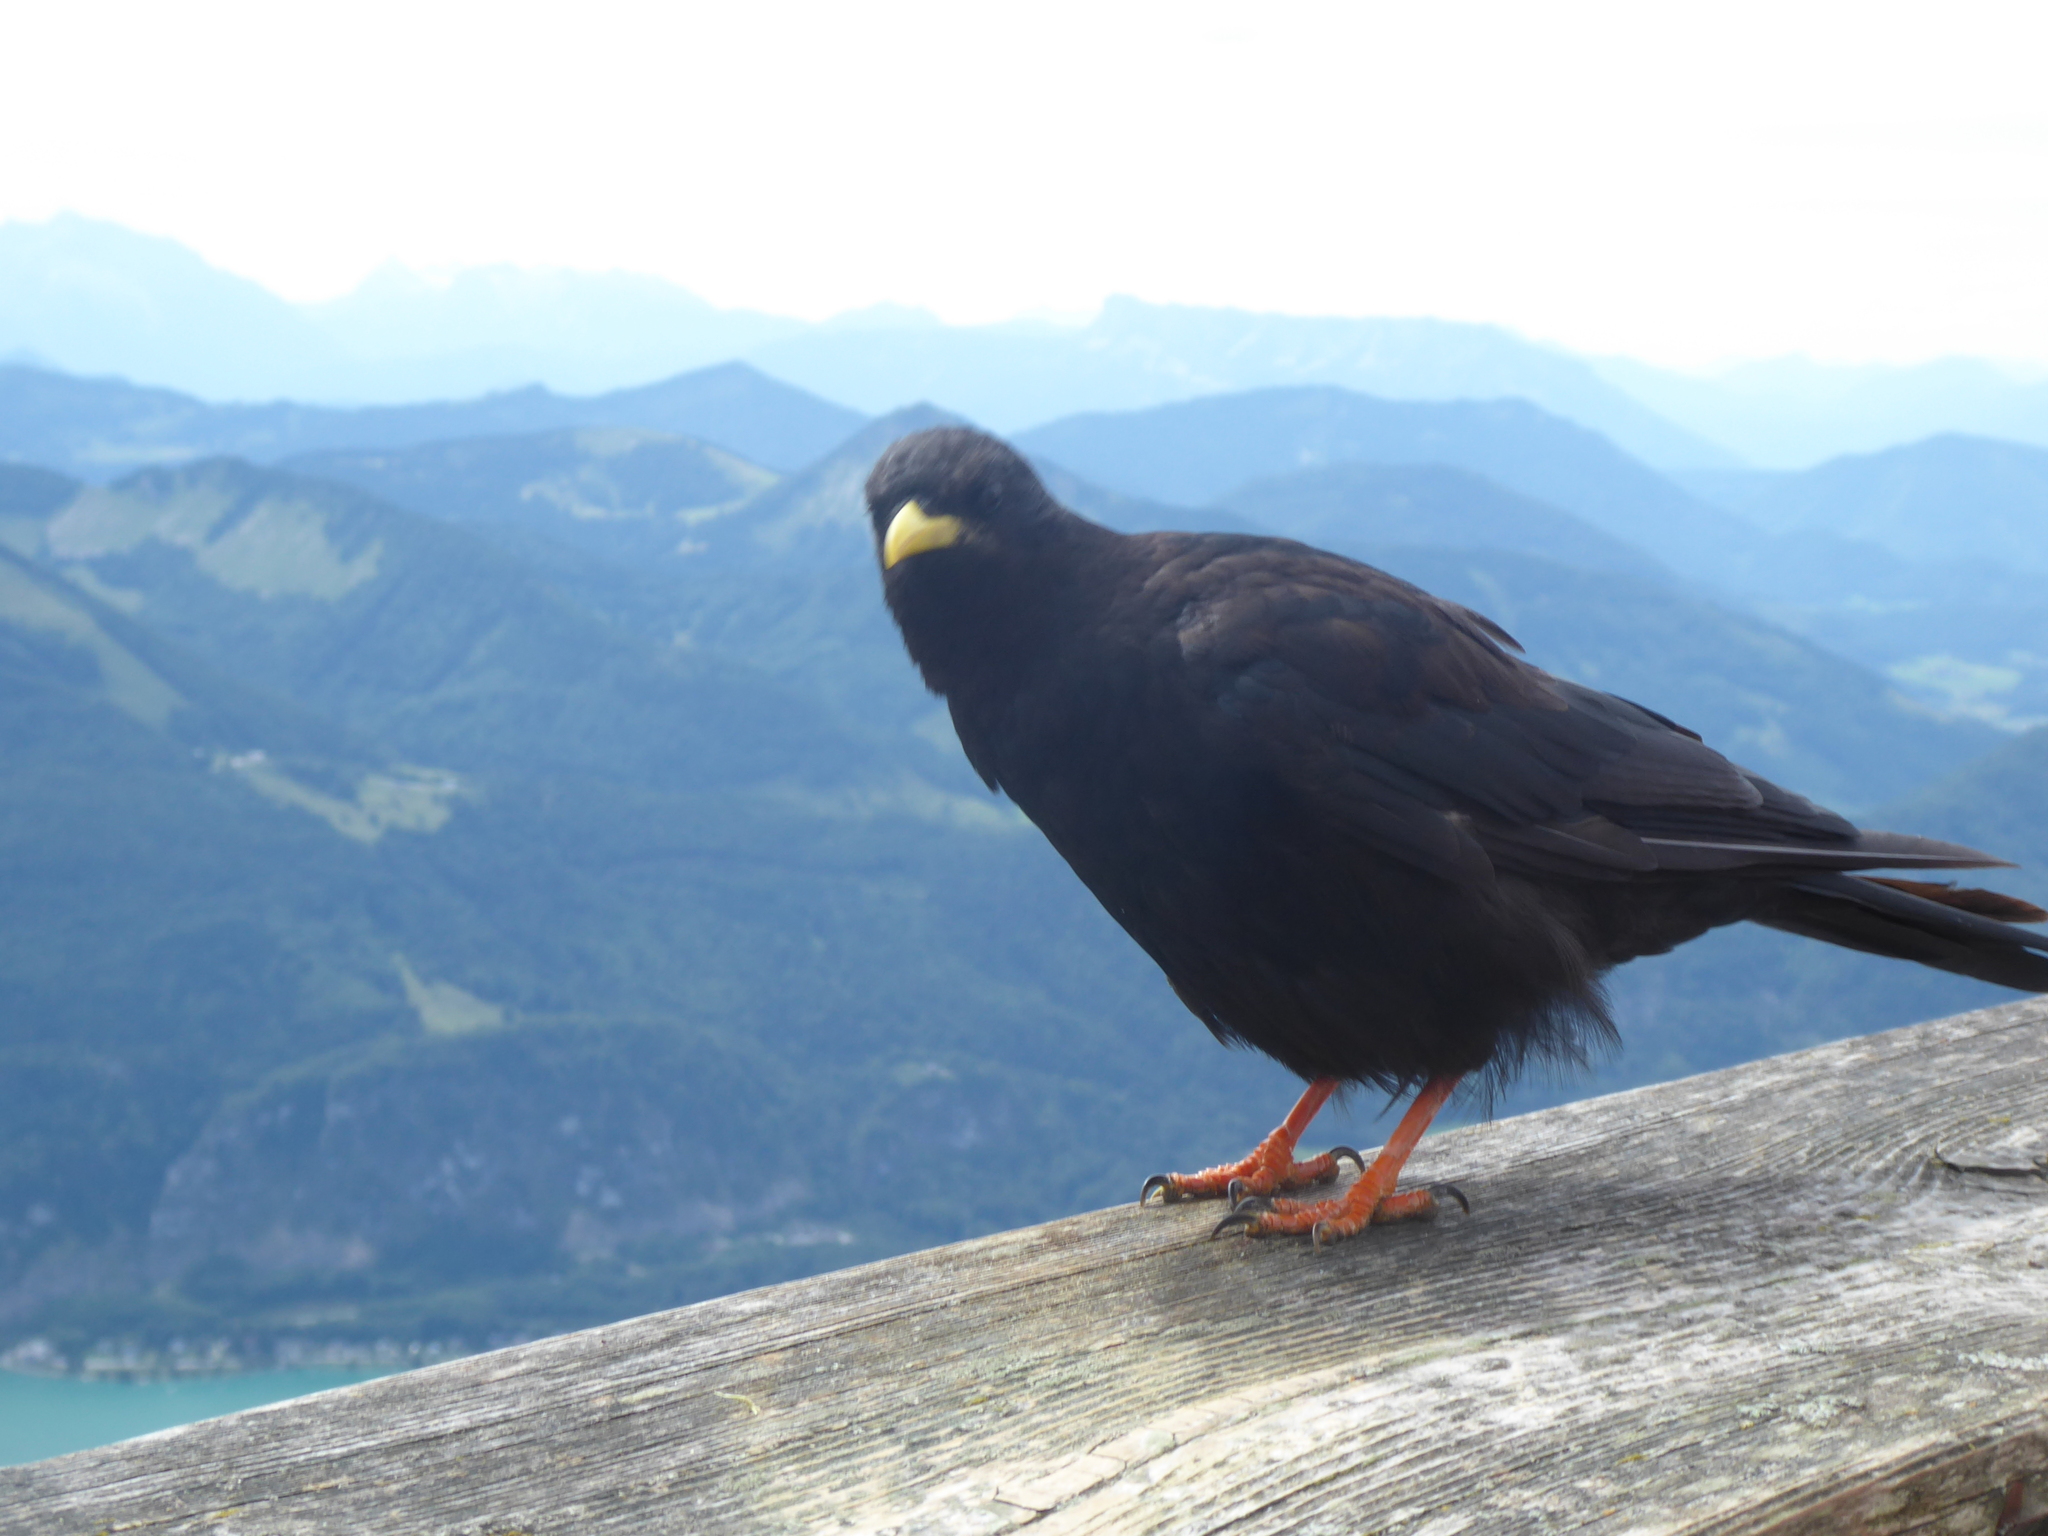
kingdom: Animalia
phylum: Chordata
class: Aves
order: Passeriformes
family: Corvidae
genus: Pyrrhocorax
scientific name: Pyrrhocorax graculus
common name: Alpine chough
